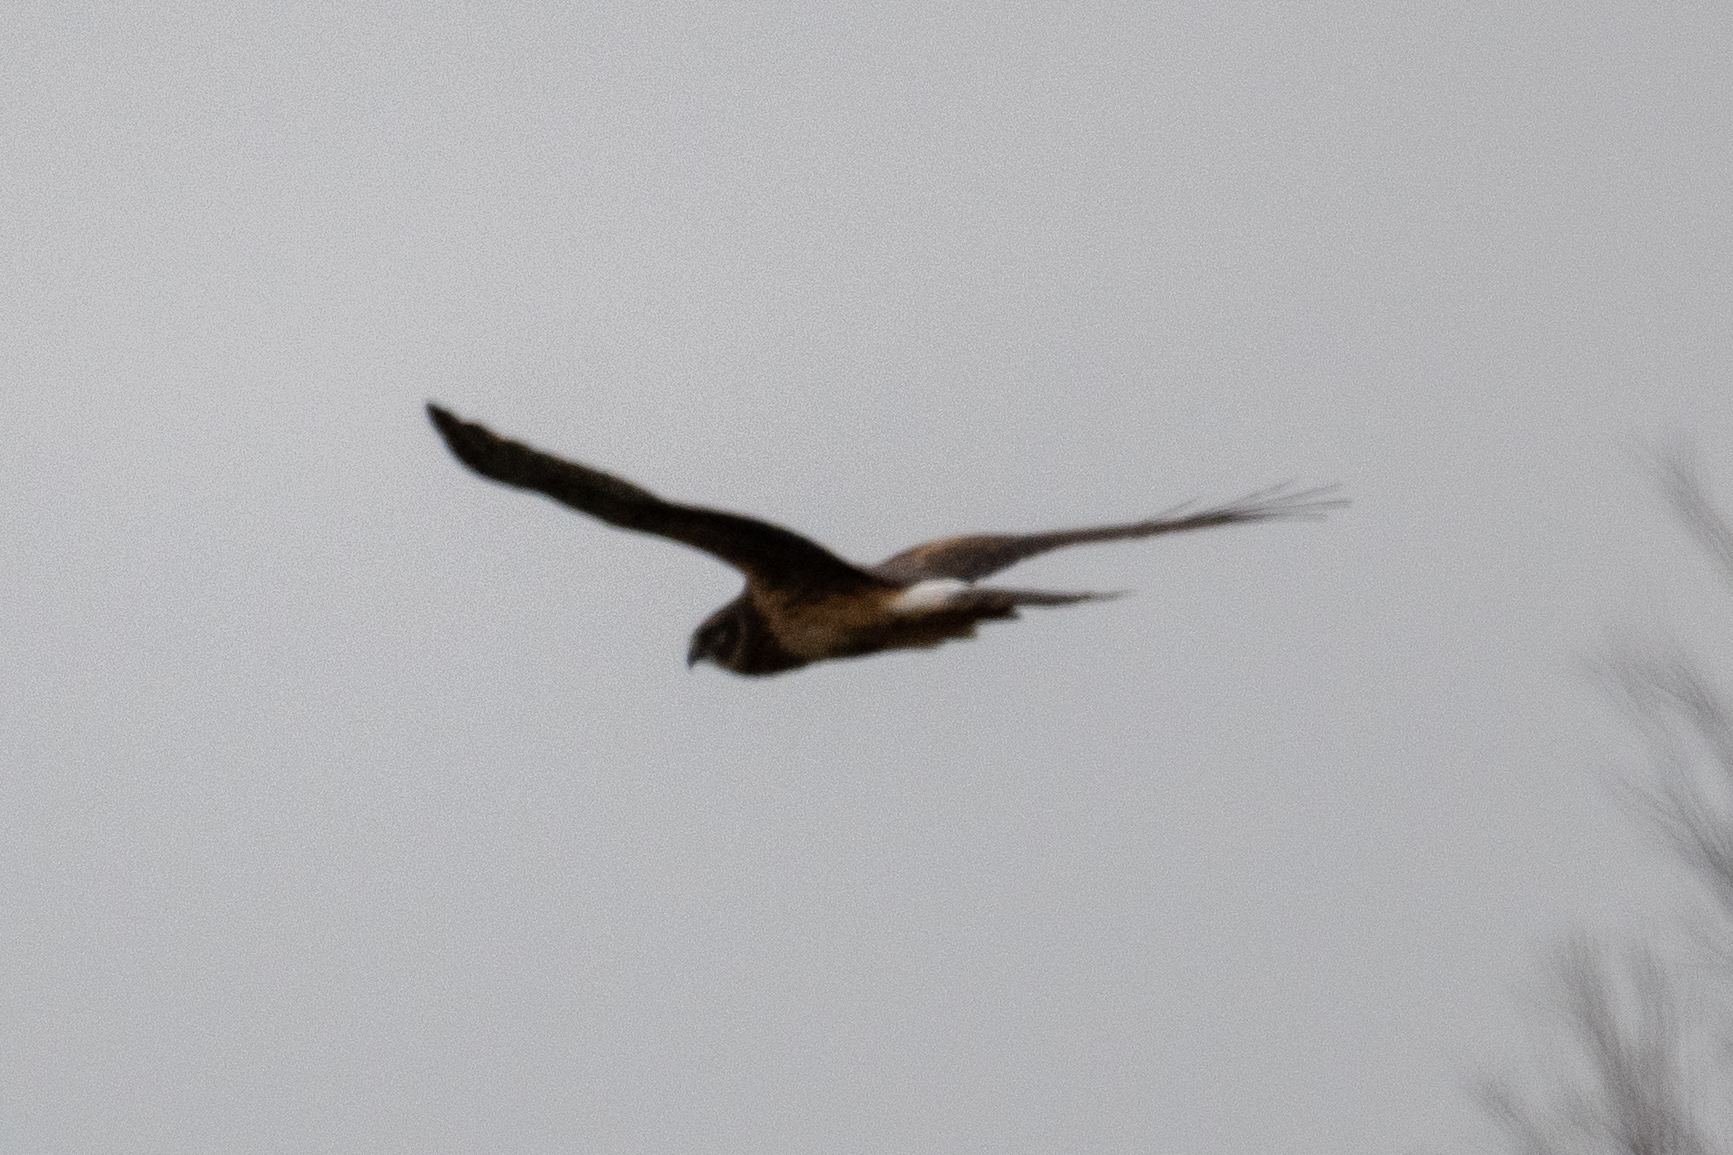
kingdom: Animalia
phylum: Chordata
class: Aves
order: Accipitriformes
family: Accipitridae
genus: Circus
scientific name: Circus cyaneus
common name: Hen harrier
